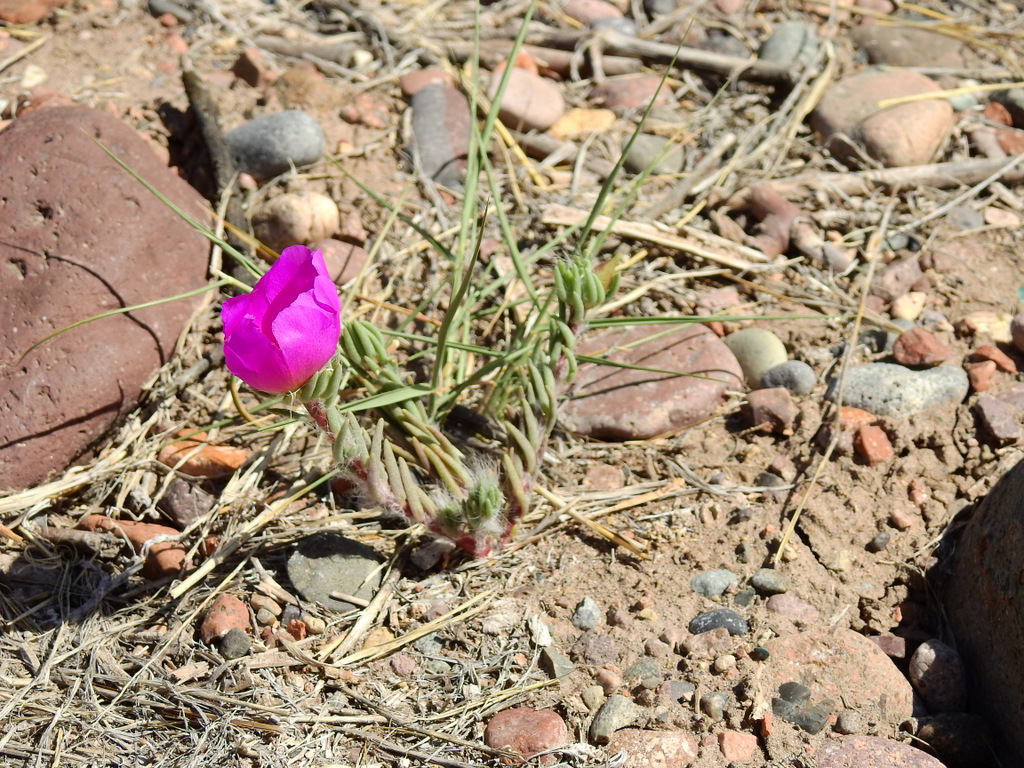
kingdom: Plantae
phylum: Tracheophyta
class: Magnoliopsida
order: Caryophyllales
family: Portulacaceae
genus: Portulaca
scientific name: Portulaca grandiflora
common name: Moss-rose
